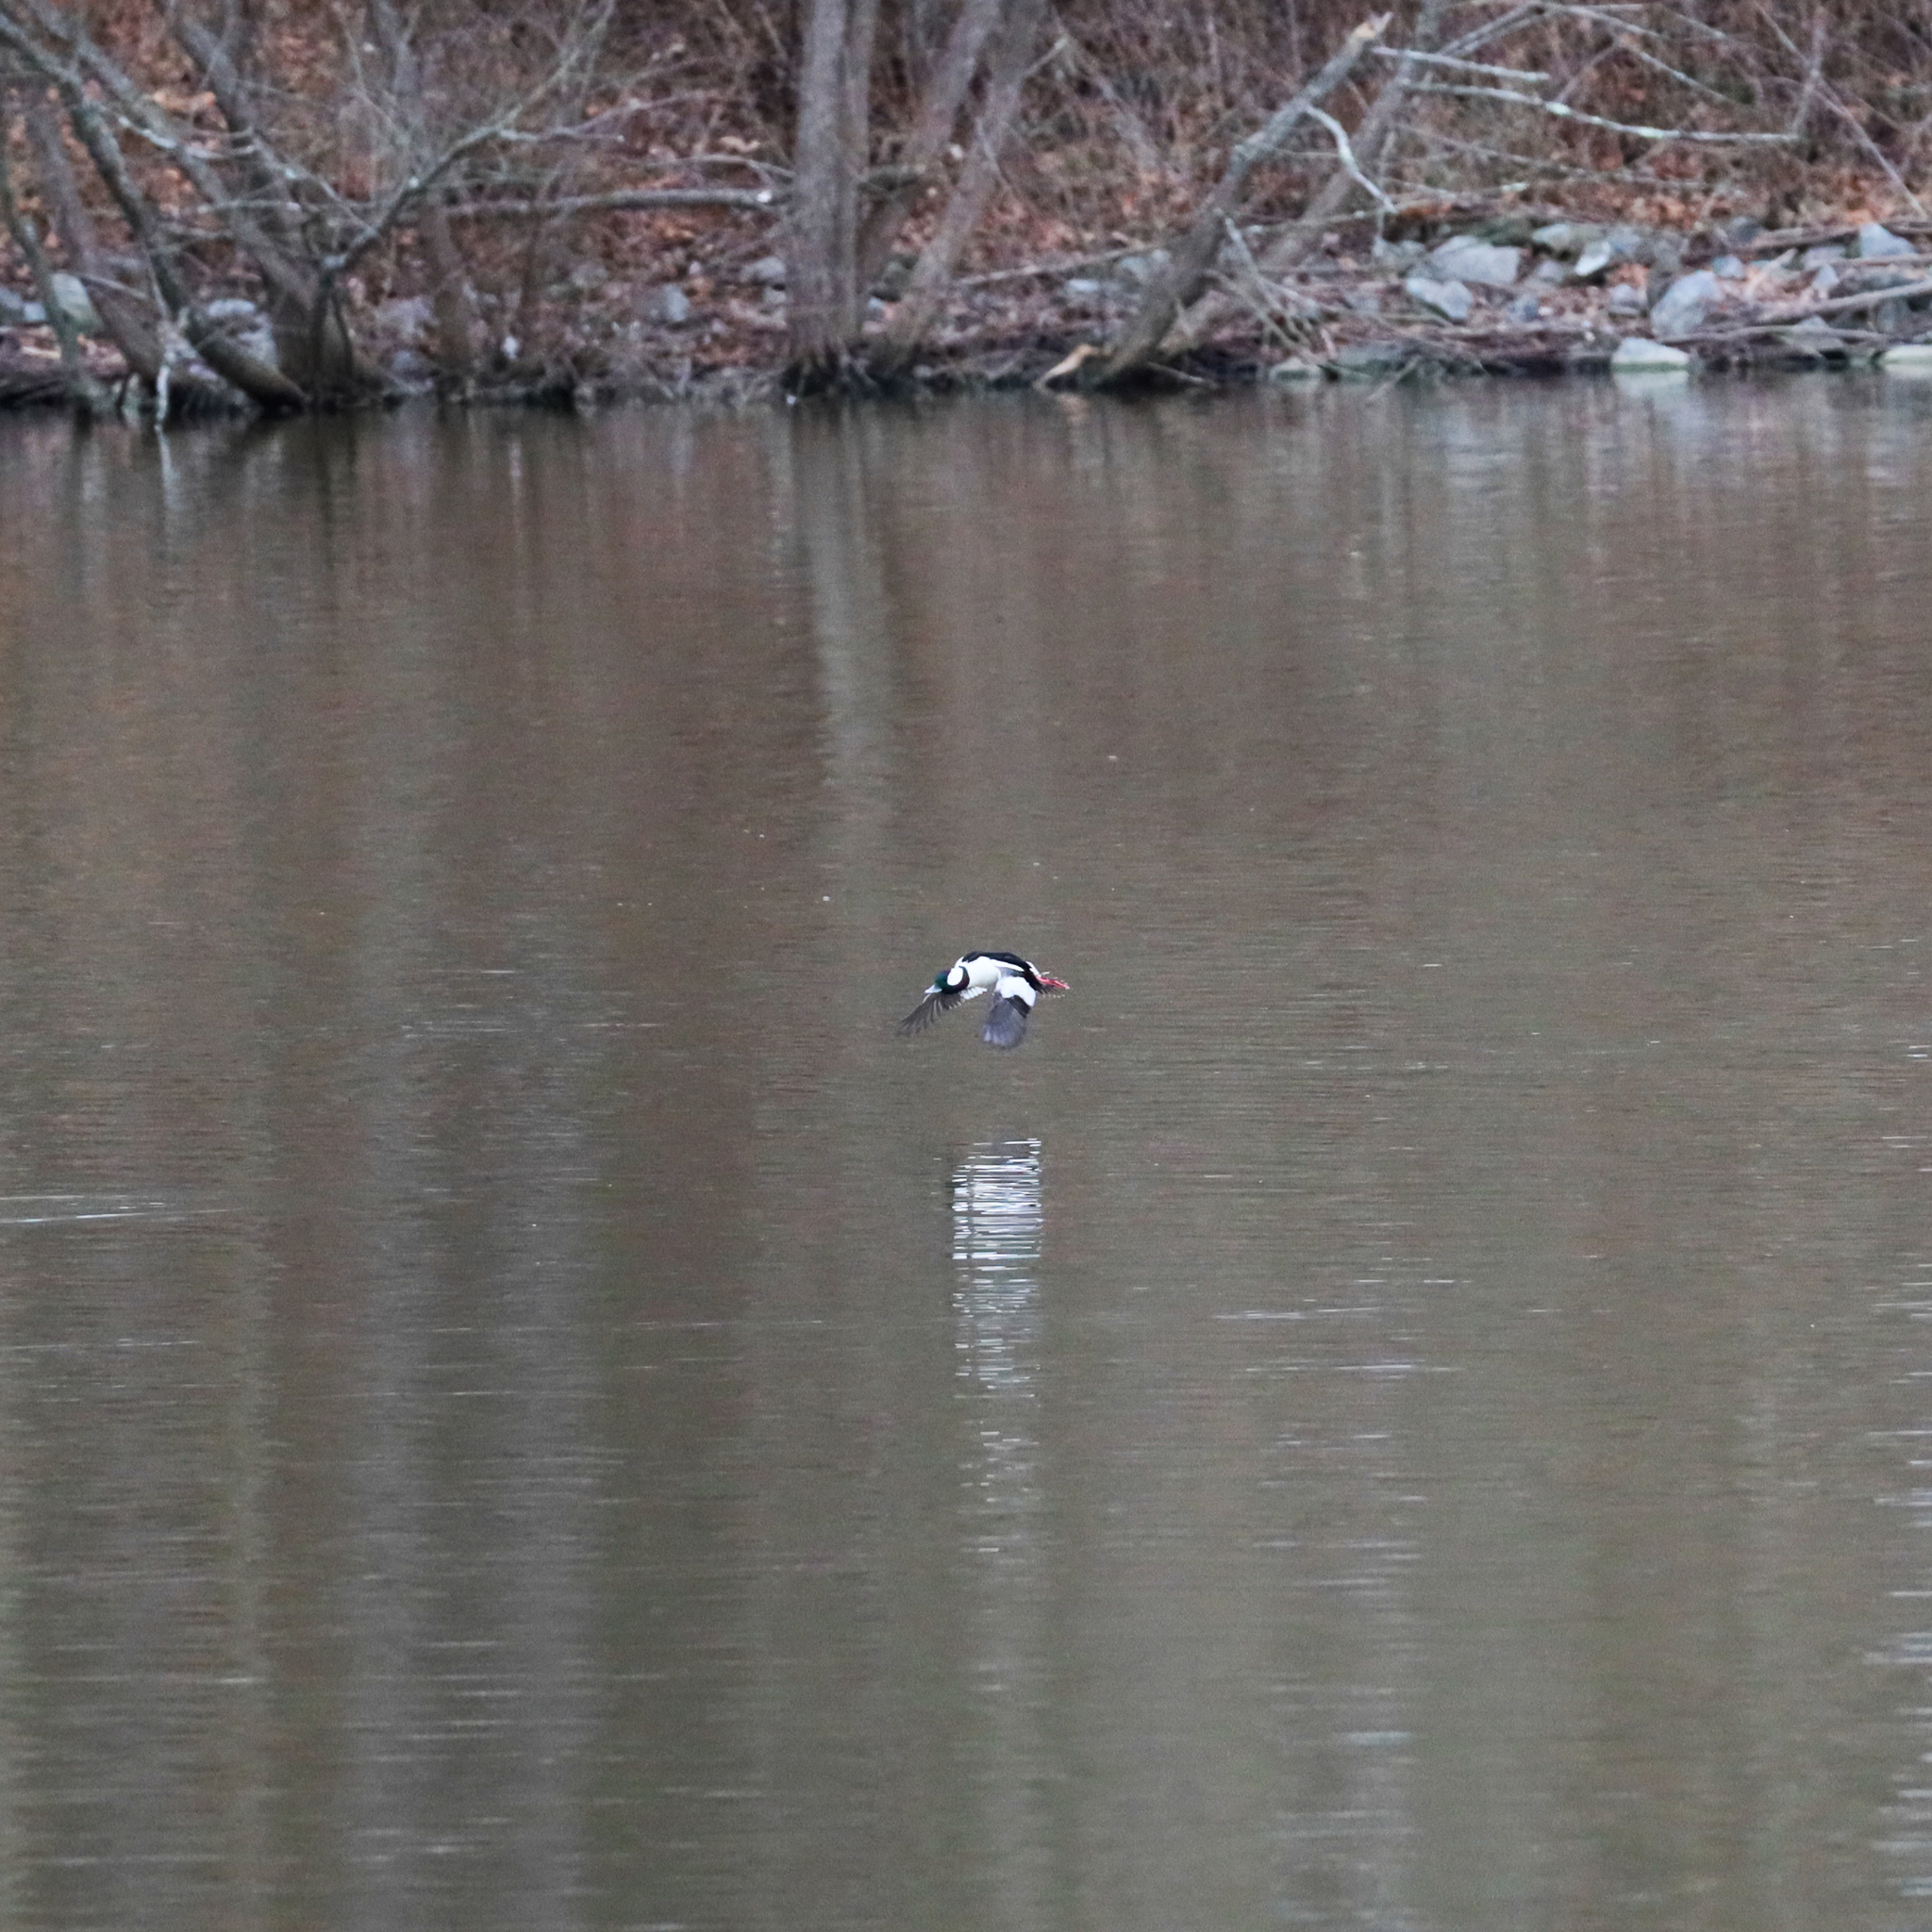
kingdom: Animalia
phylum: Chordata
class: Aves
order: Anseriformes
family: Anatidae
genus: Bucephala
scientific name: Bucephala albeola
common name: Bufflehead
